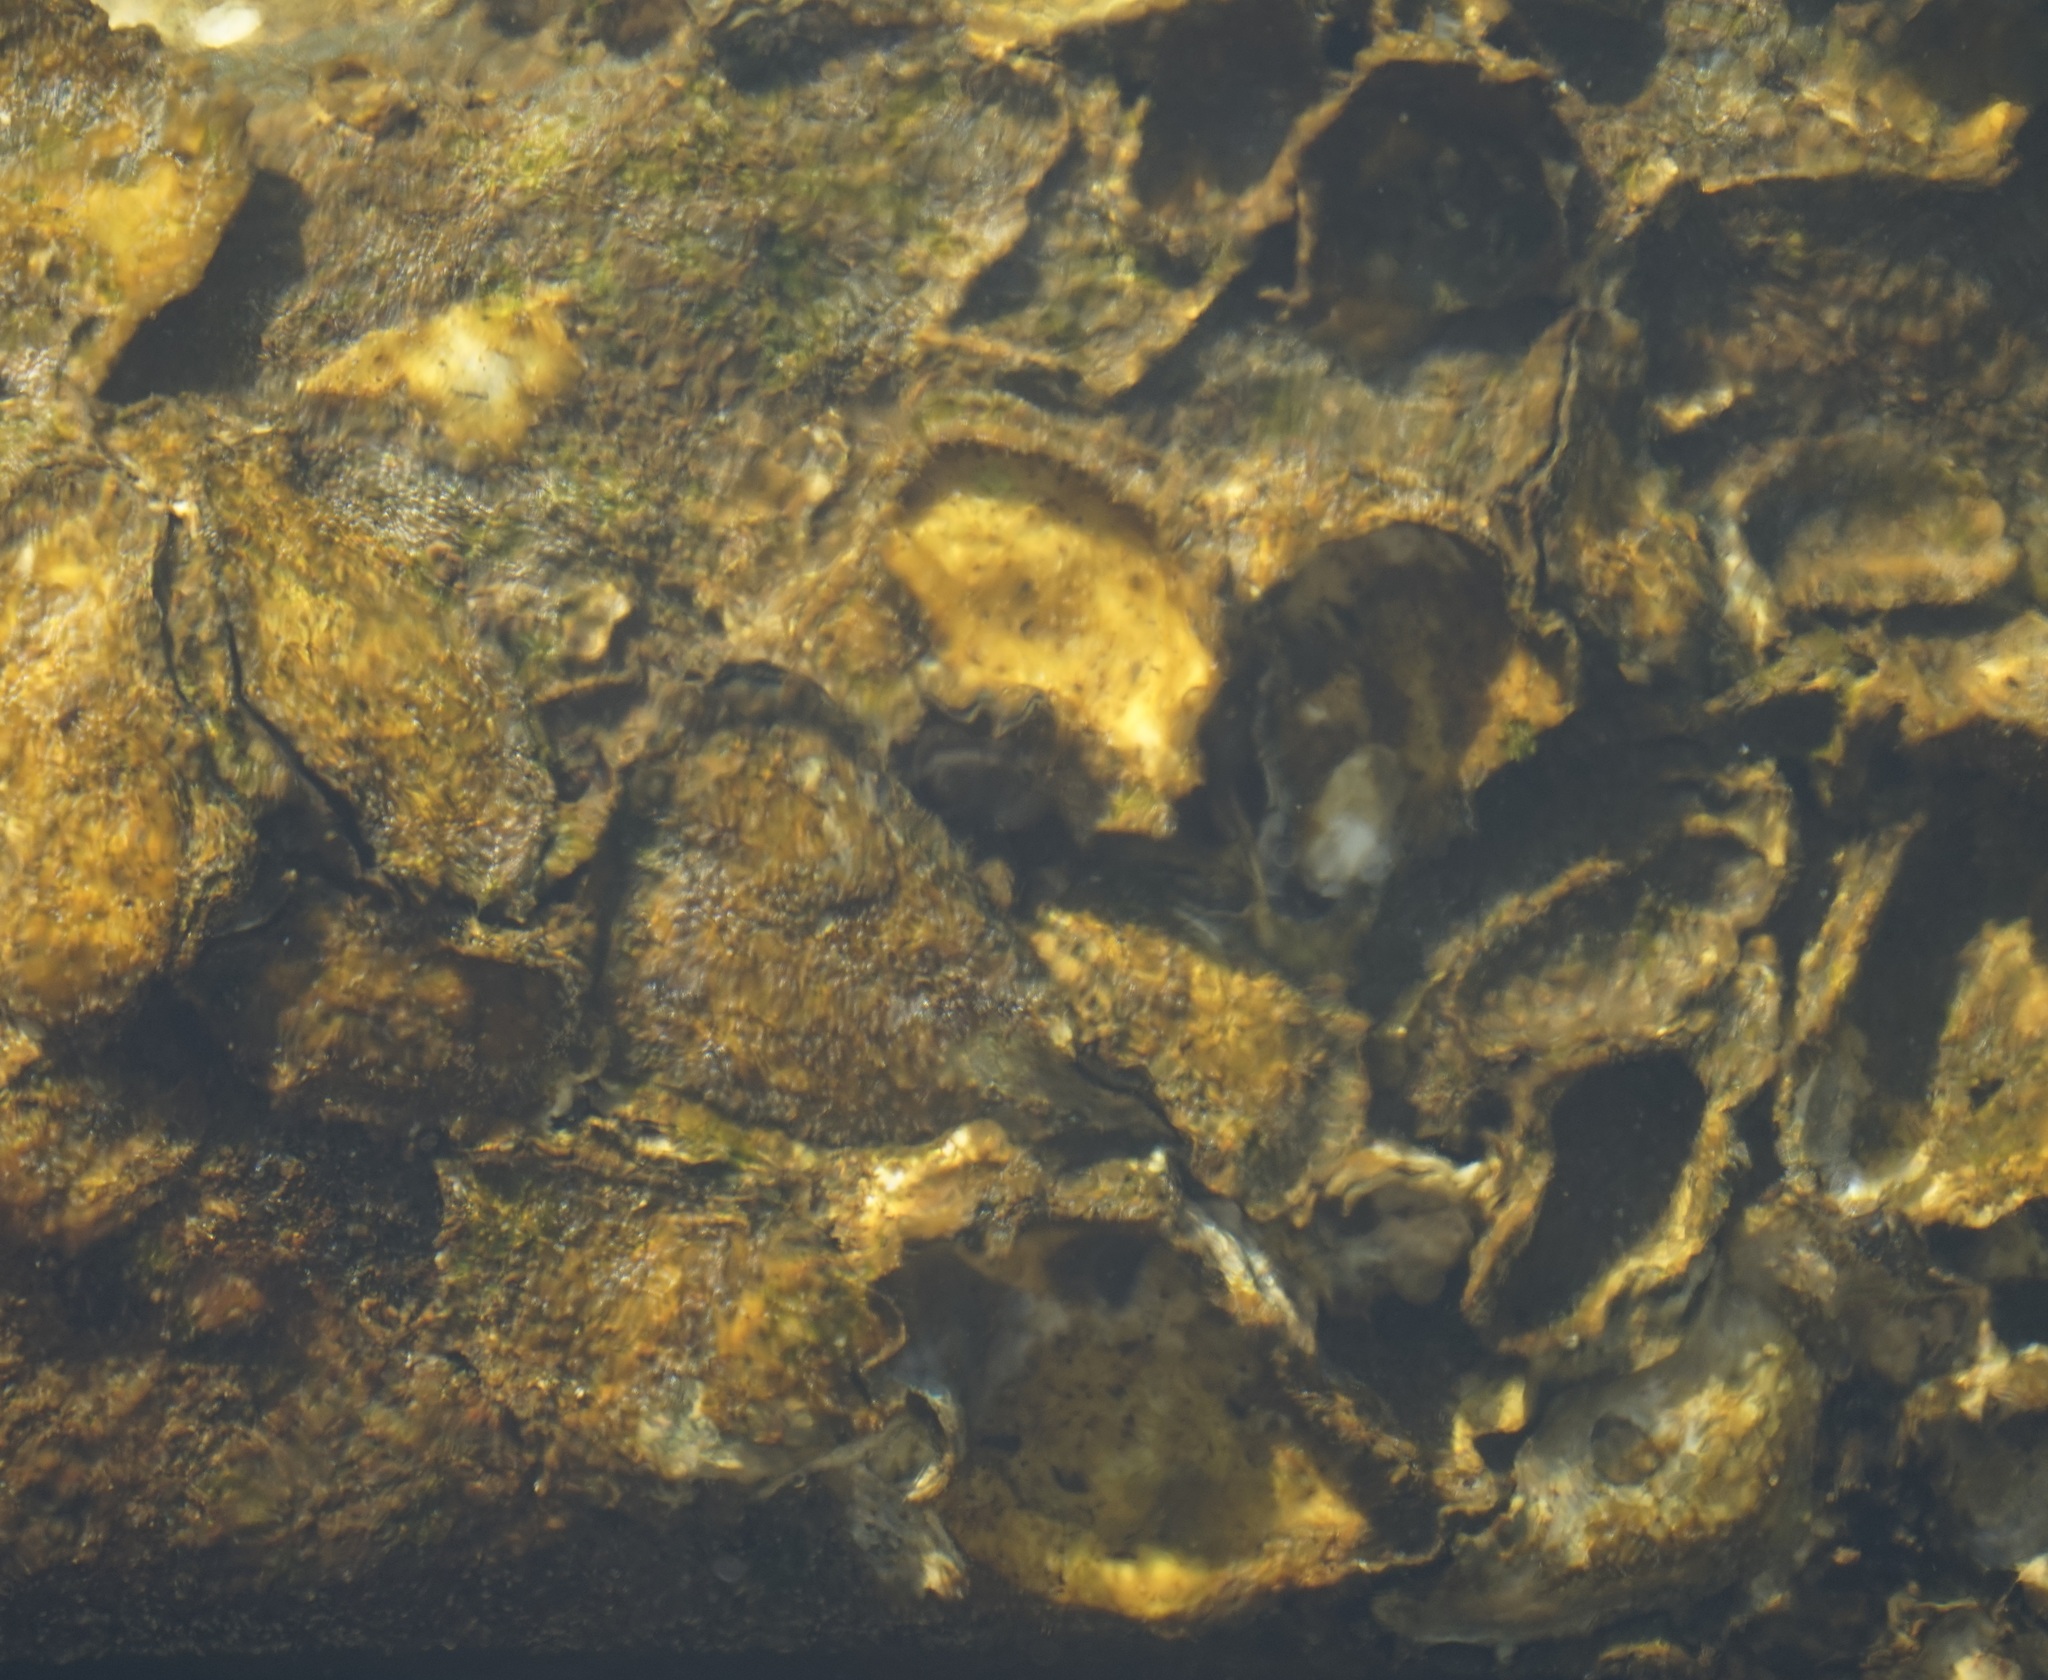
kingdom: Animalia
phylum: Mollusca
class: Bivalvia
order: Ostreida
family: Ostreidae
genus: Saccostrea
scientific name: Saccostrea glomerata
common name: Sydney cupped oyster
